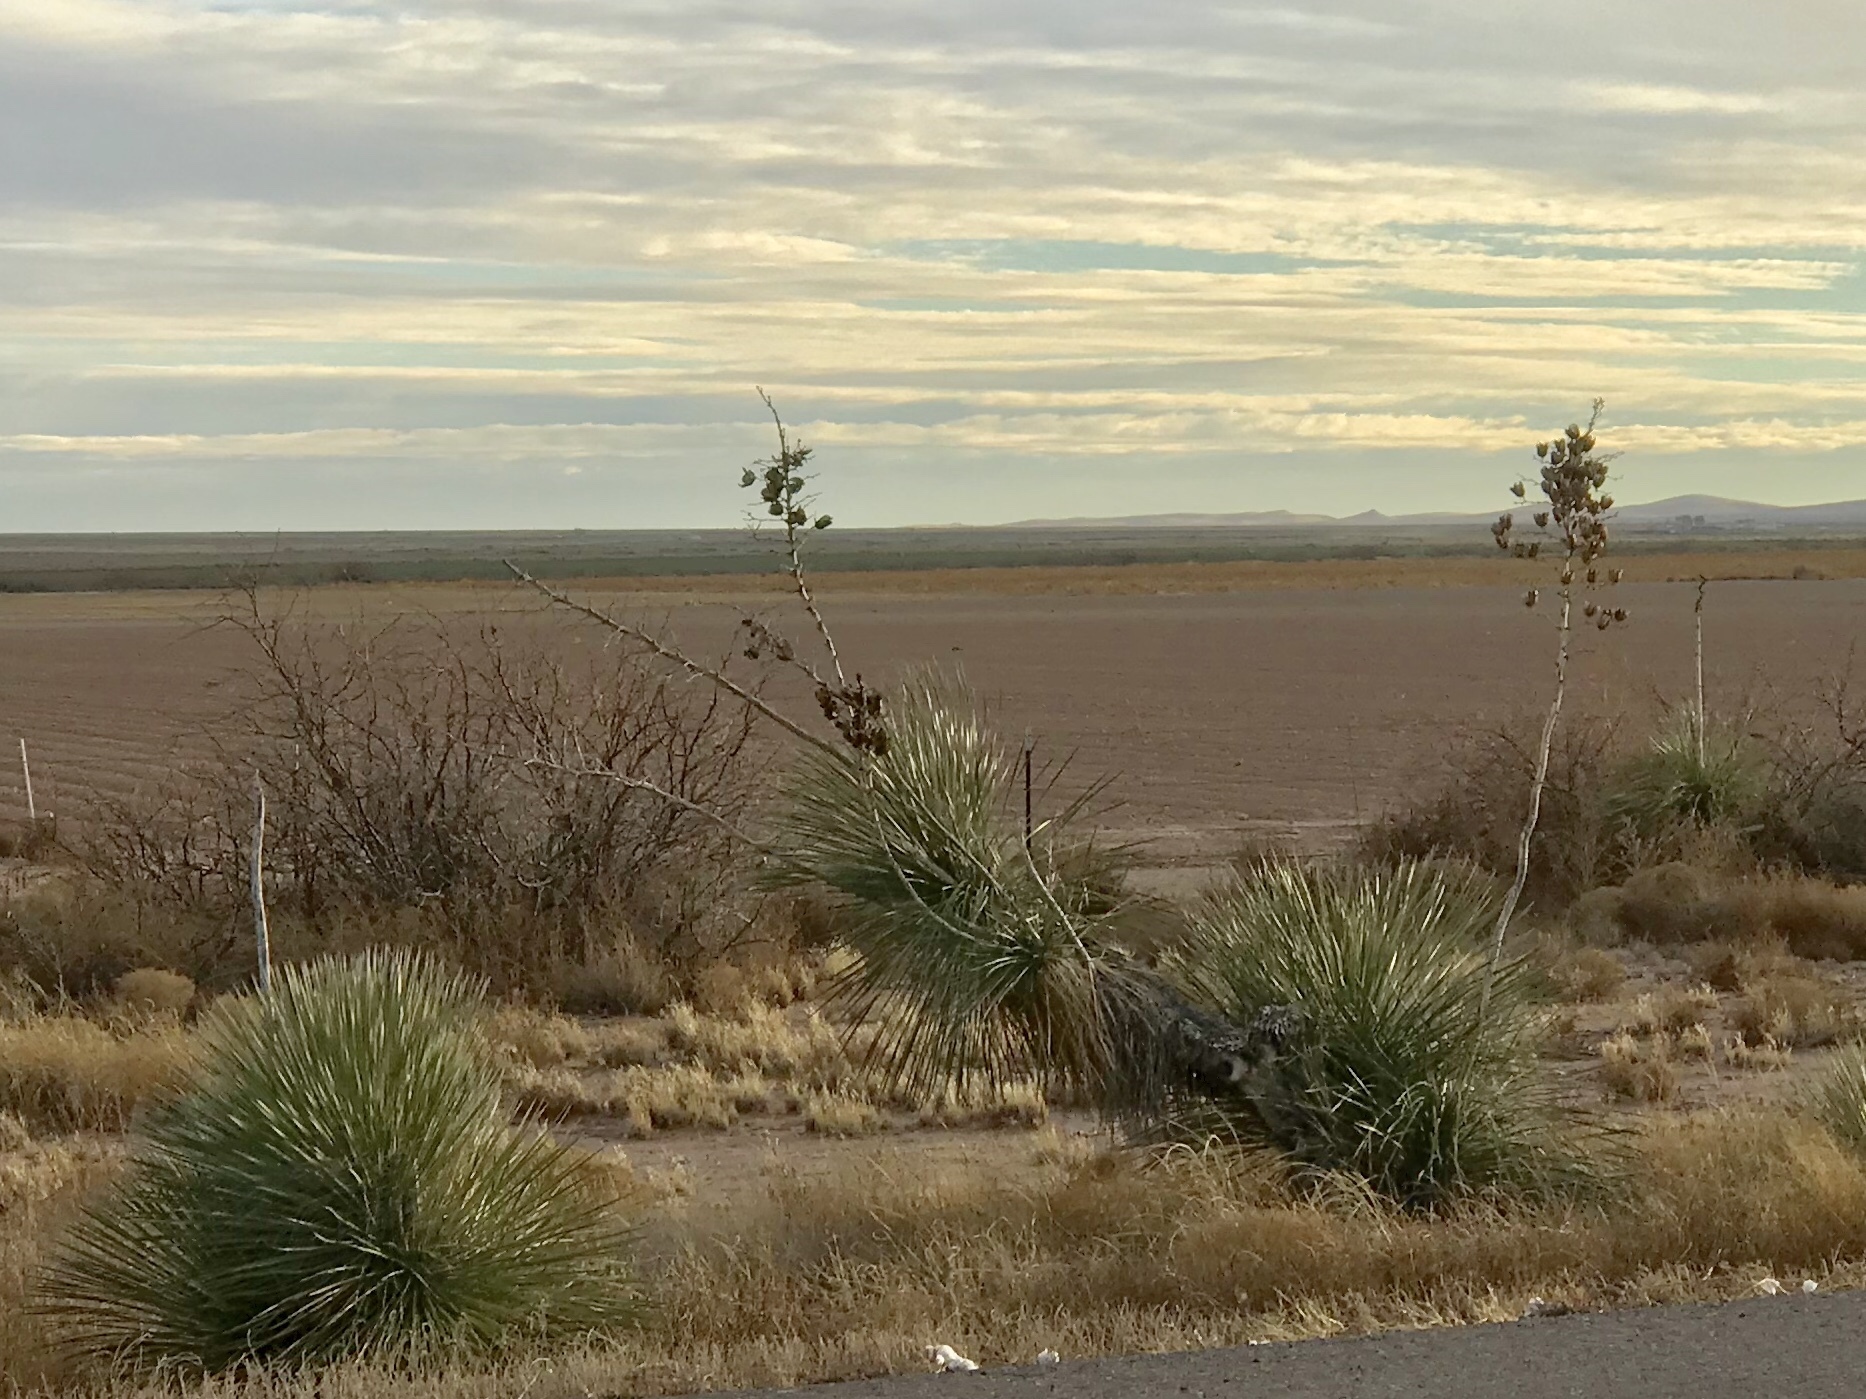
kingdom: Plantae
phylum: Tracheophyta
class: Liliopsida
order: Asparagales
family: Asparagaceae
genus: Yucca
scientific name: Yucca elata
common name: Palmella
